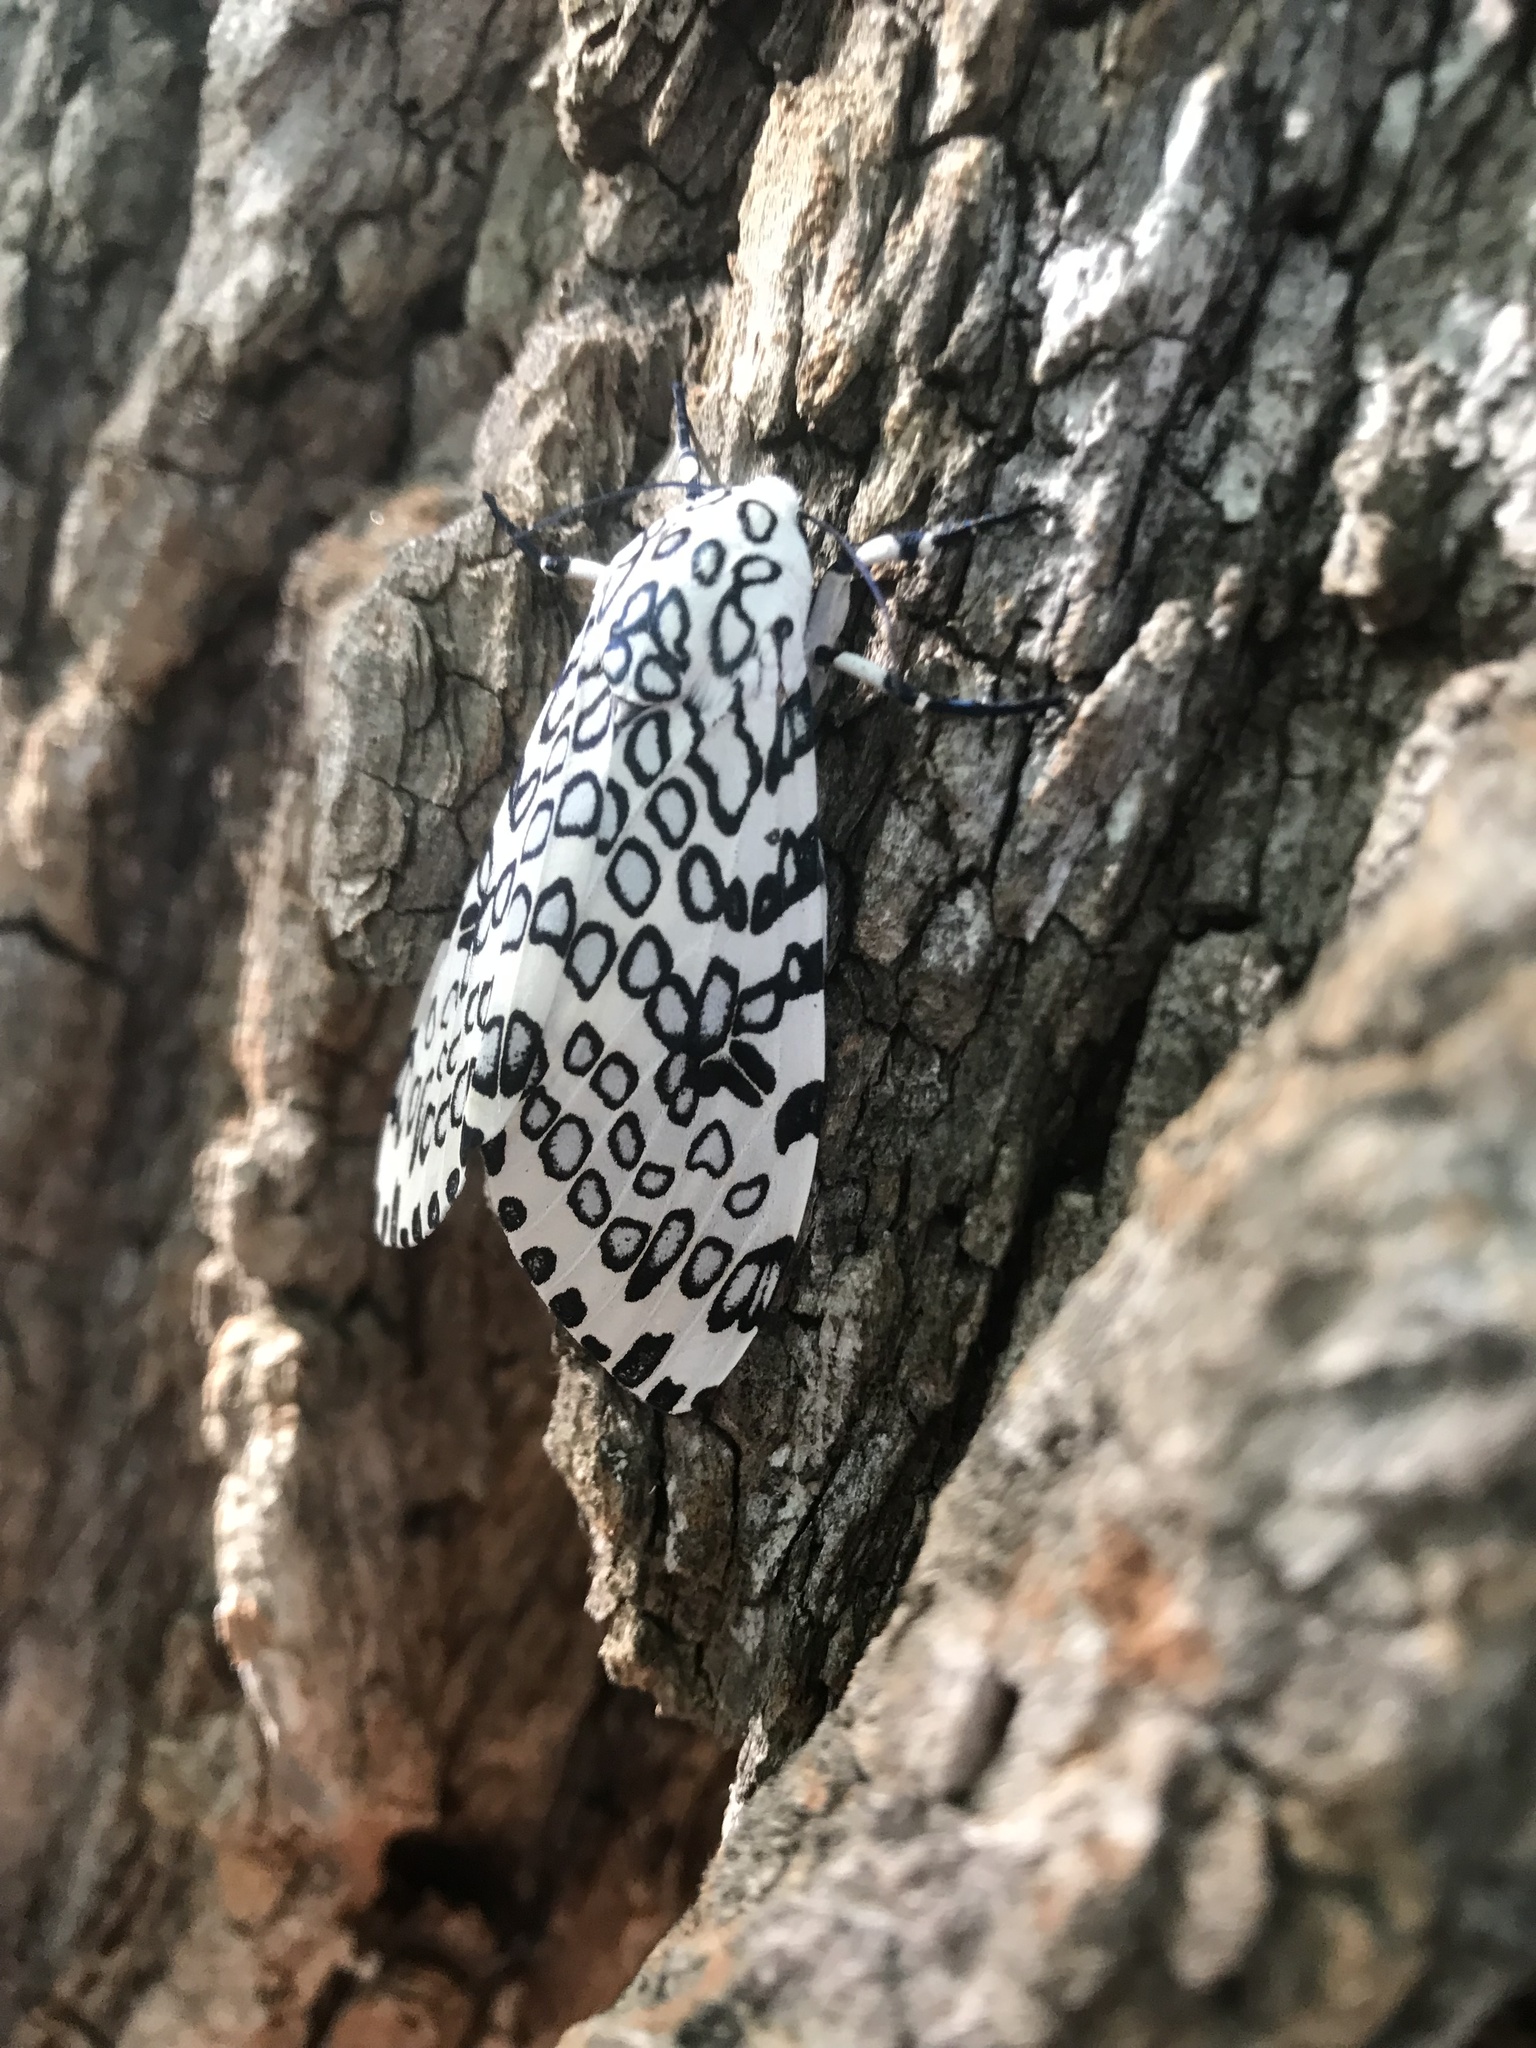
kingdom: Animalia
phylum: Arthropoda
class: Insecta
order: Lepidoptera
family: Erebidae
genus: Hypercompe
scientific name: Hypercompe scribonia
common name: Giant leopard moth
